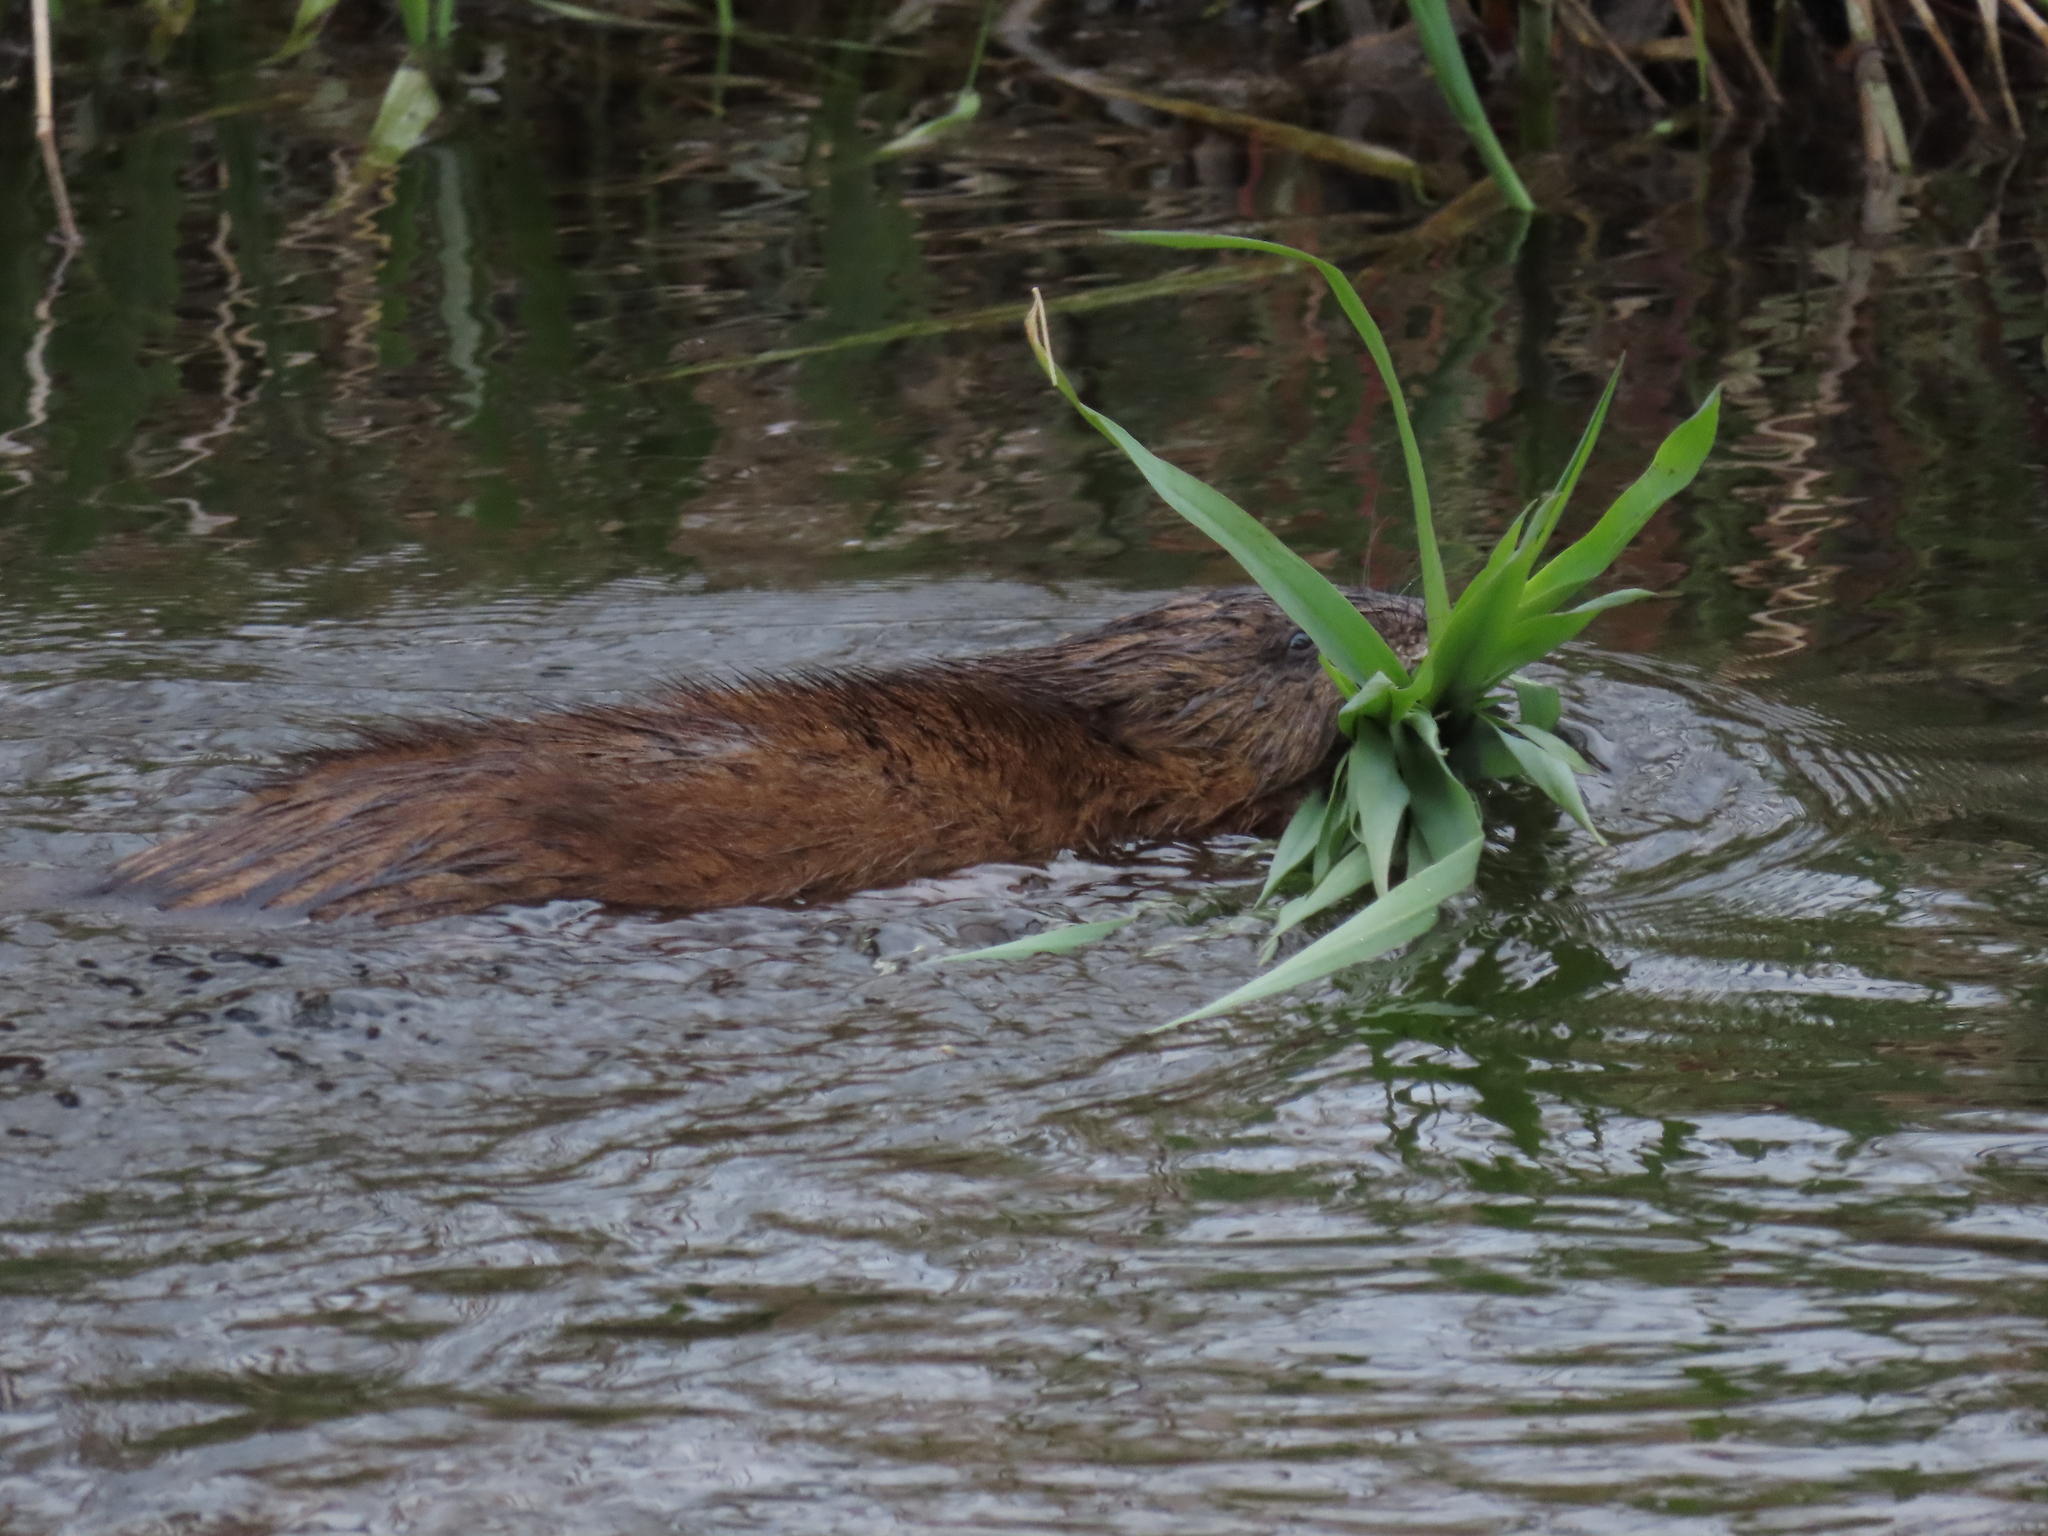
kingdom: Animalia
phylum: Chordata
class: Mammalia
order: Rodentia
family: Cricetidae
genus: Ondatra
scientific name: Ondatra zibethicus
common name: Muskrat
